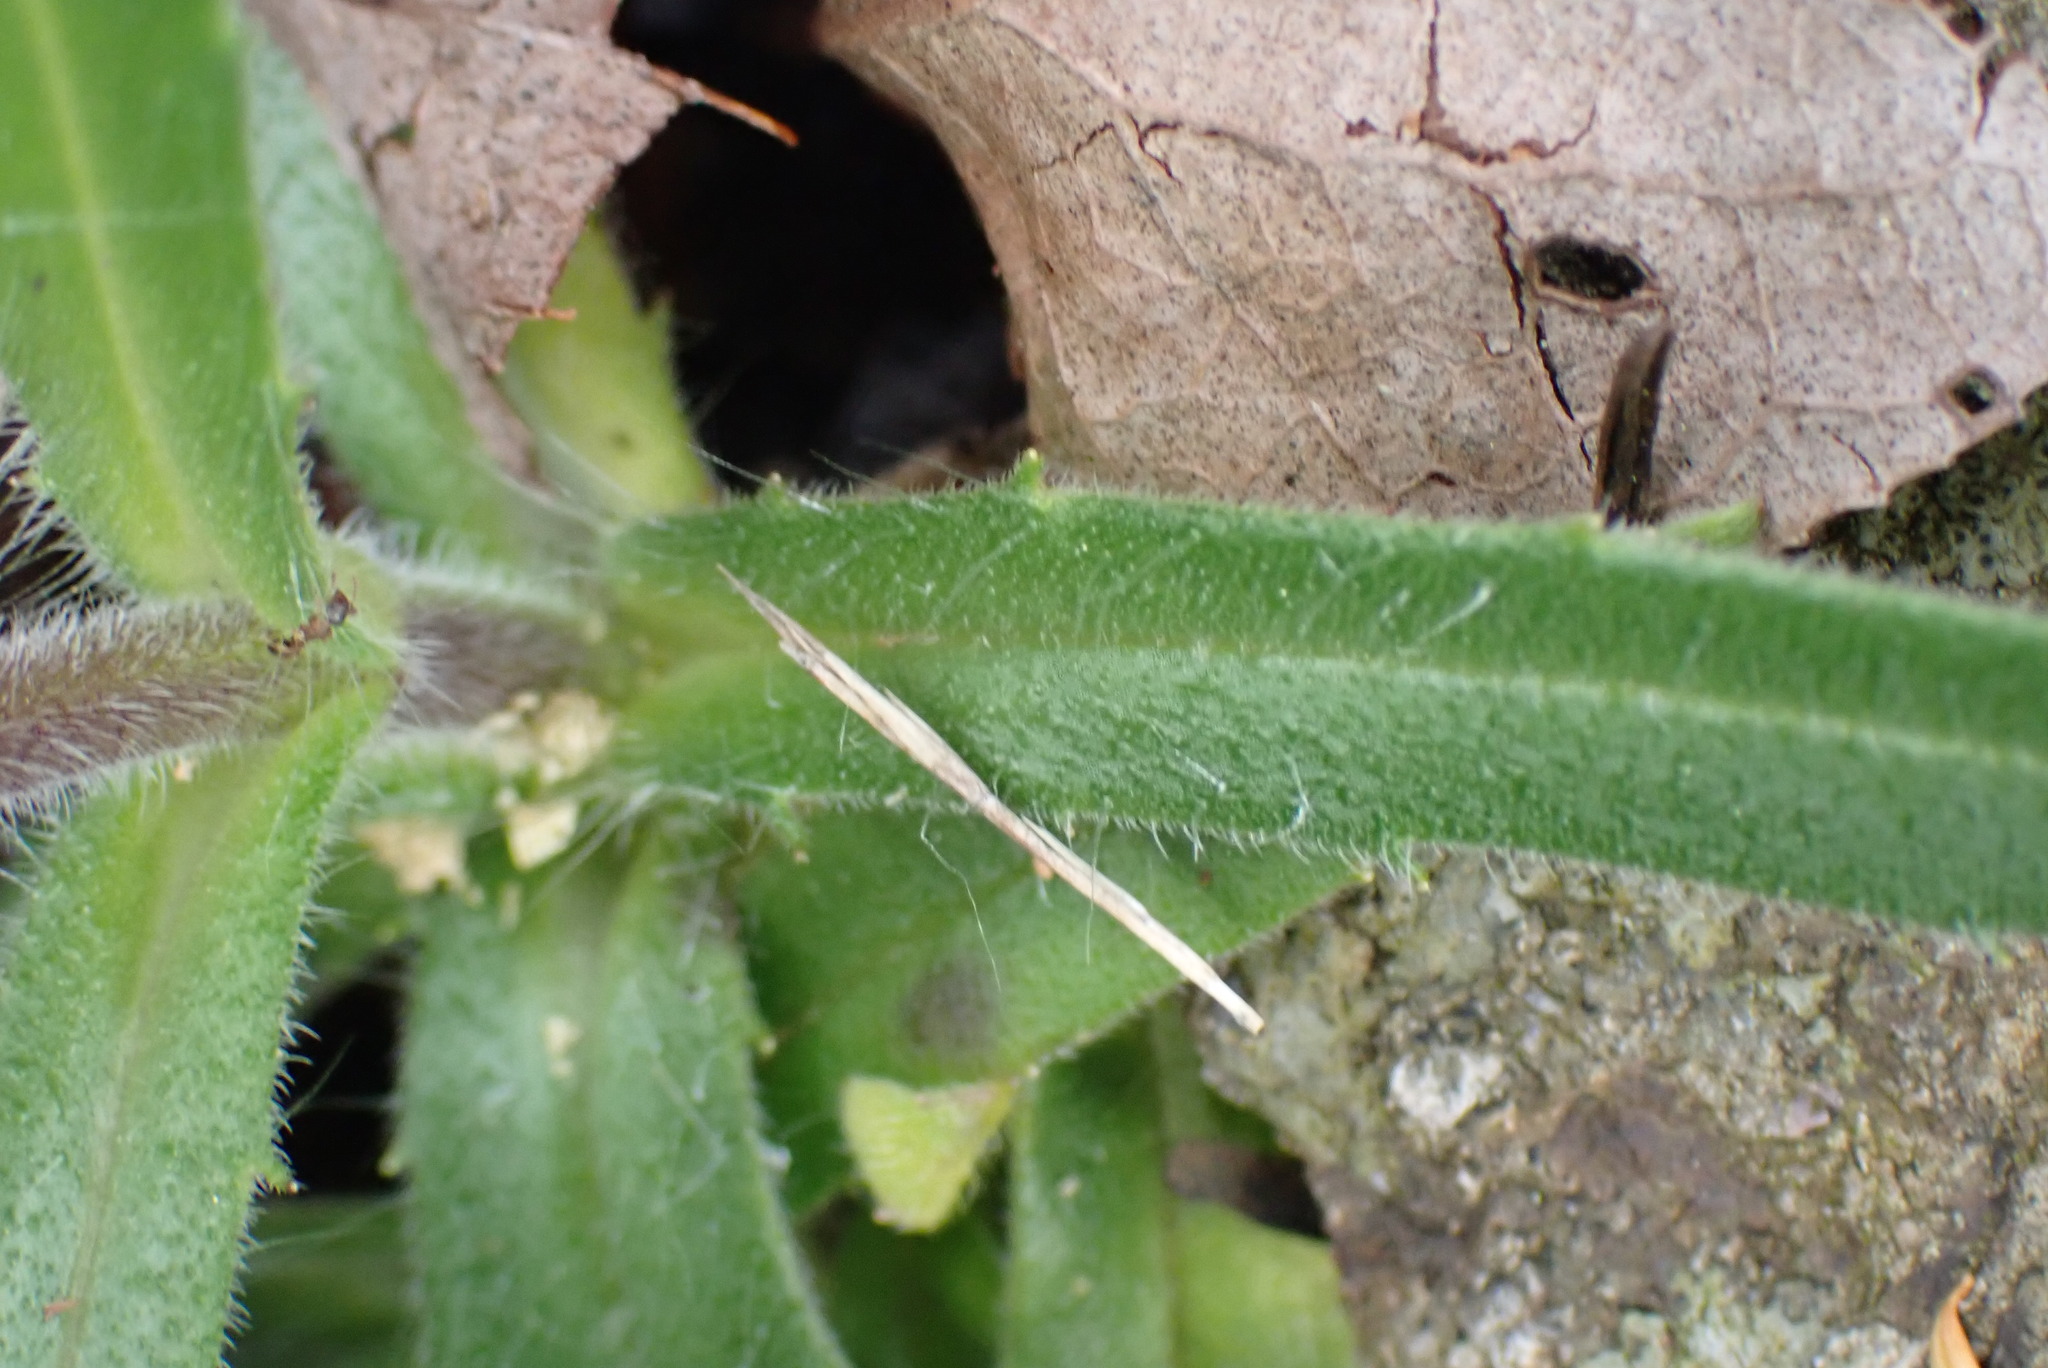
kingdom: Plantae
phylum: Tracheophyta
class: Magnoliopsida
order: Asterales
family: Asteraceae
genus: Anisocarpus
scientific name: Anisocarpus madioides
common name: Woodland madia
